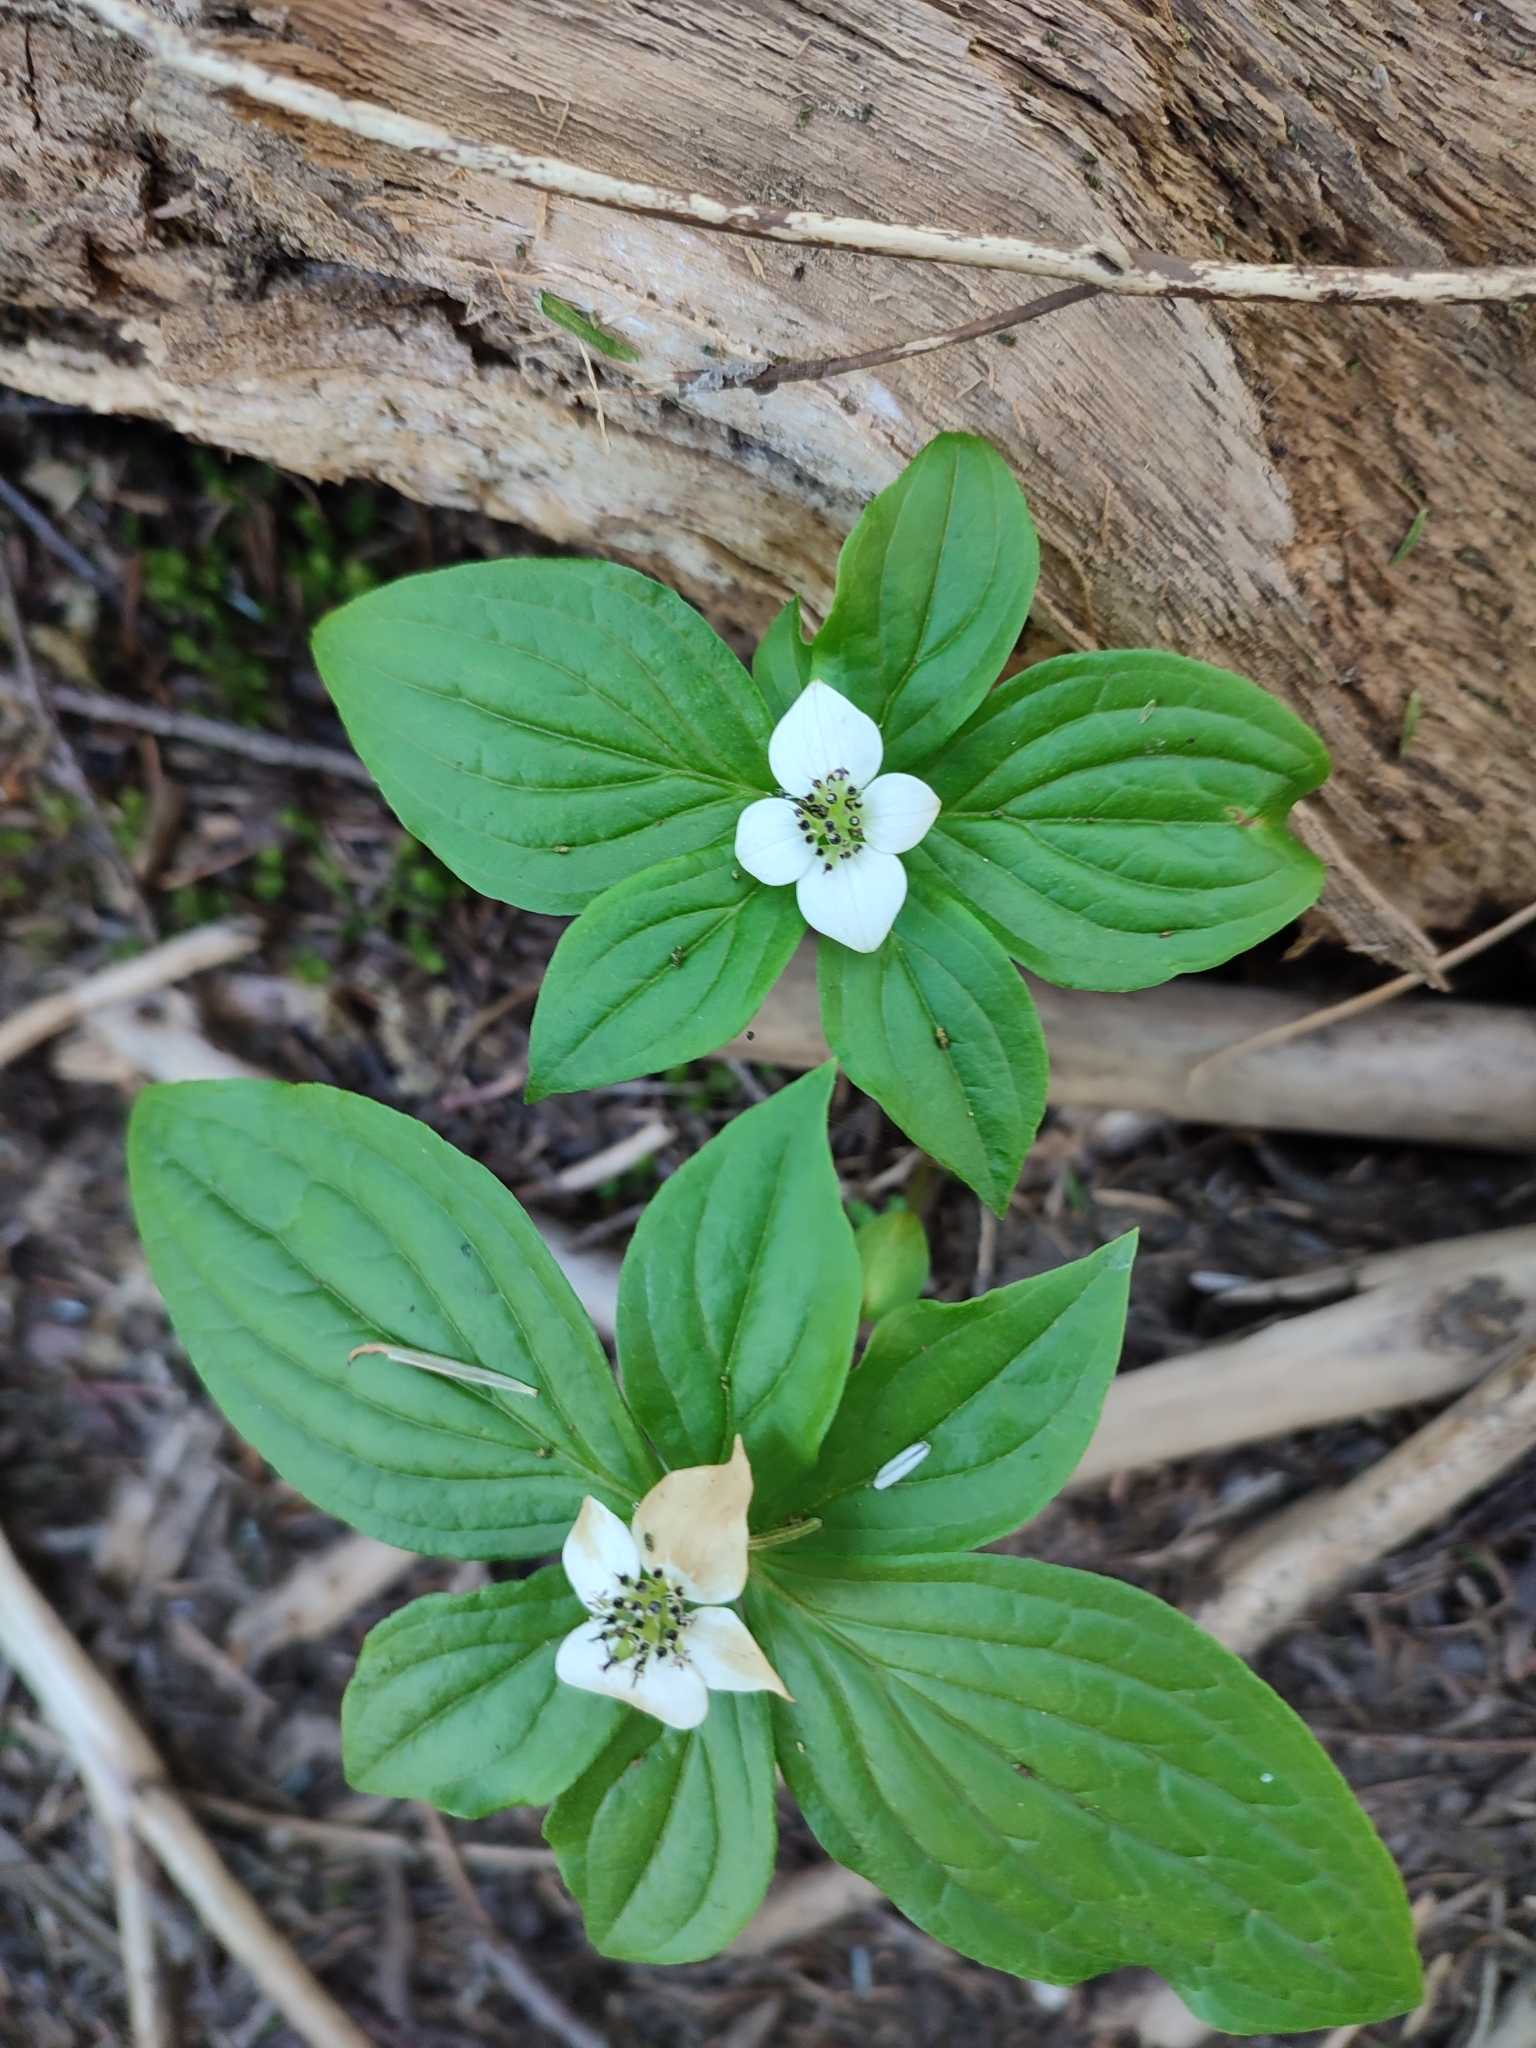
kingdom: Plantae
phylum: Tracheophyta
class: Magnoliopsida
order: Cornales
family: Cornaceae
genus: Cornus
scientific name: Cornus unalaschkensis
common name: Alaska bunchberry
